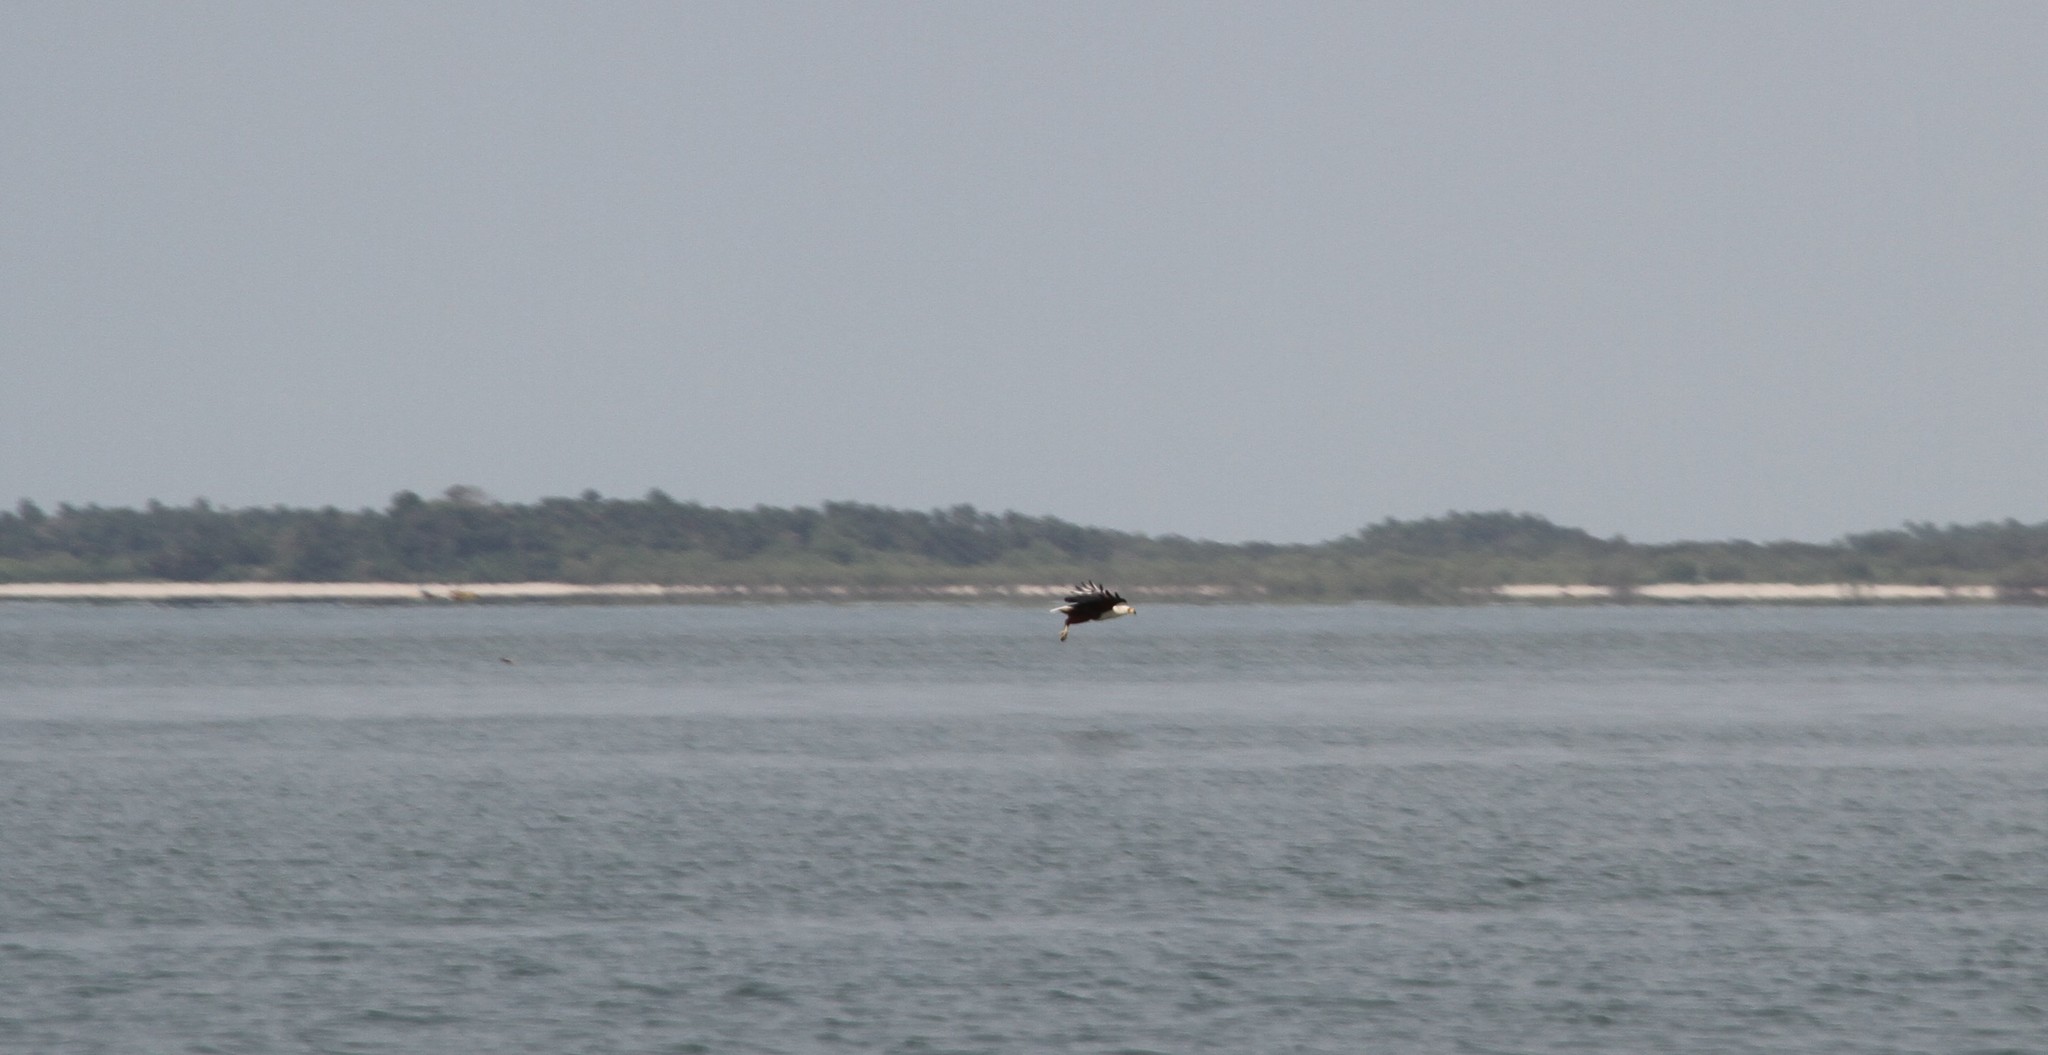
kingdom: Animalia
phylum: Chordata
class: Aves
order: Accipitriformes
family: Accipitridae
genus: Haliaeetus
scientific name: Haliaeetus vocifer
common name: African fish eagle
